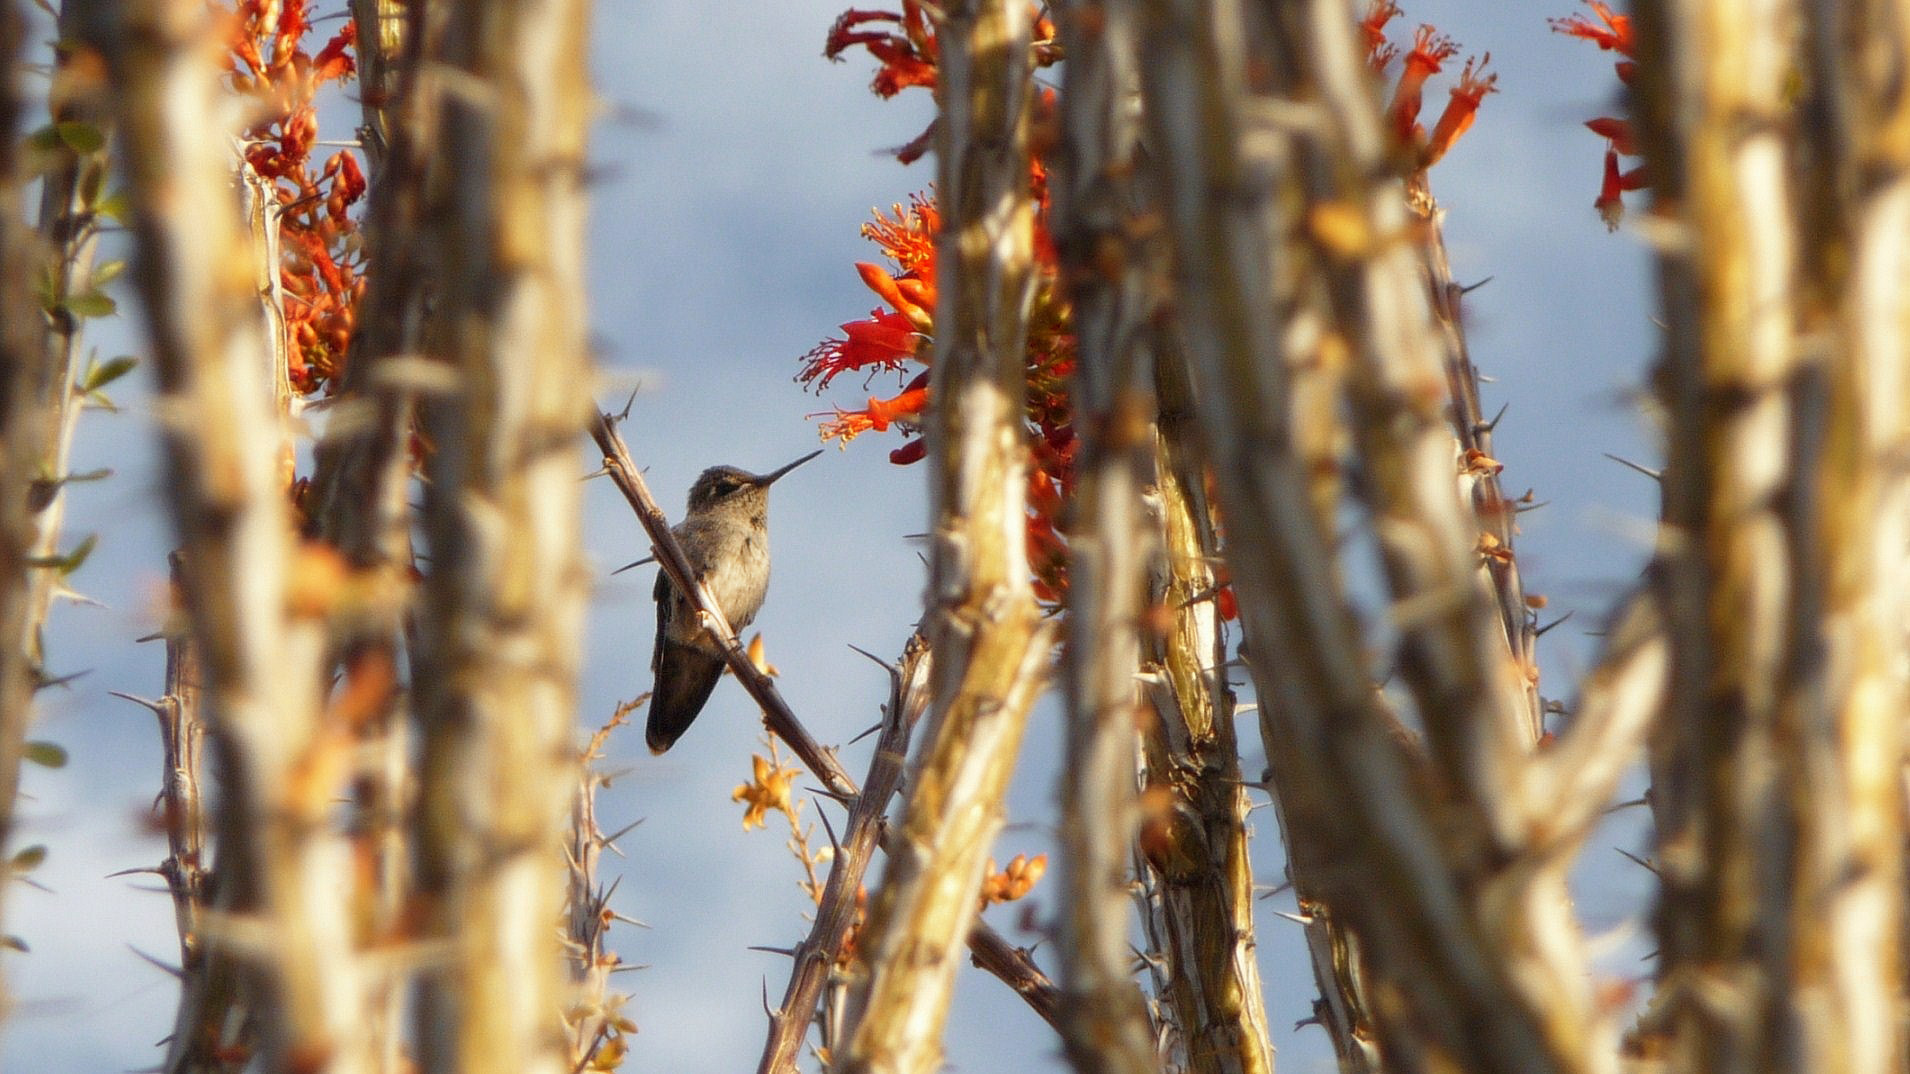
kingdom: Animalia
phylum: Chordata
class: Aves
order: Apodiformes
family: Trochilidae
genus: Calypte
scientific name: Calypte anna
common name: Anna's hummingbird
